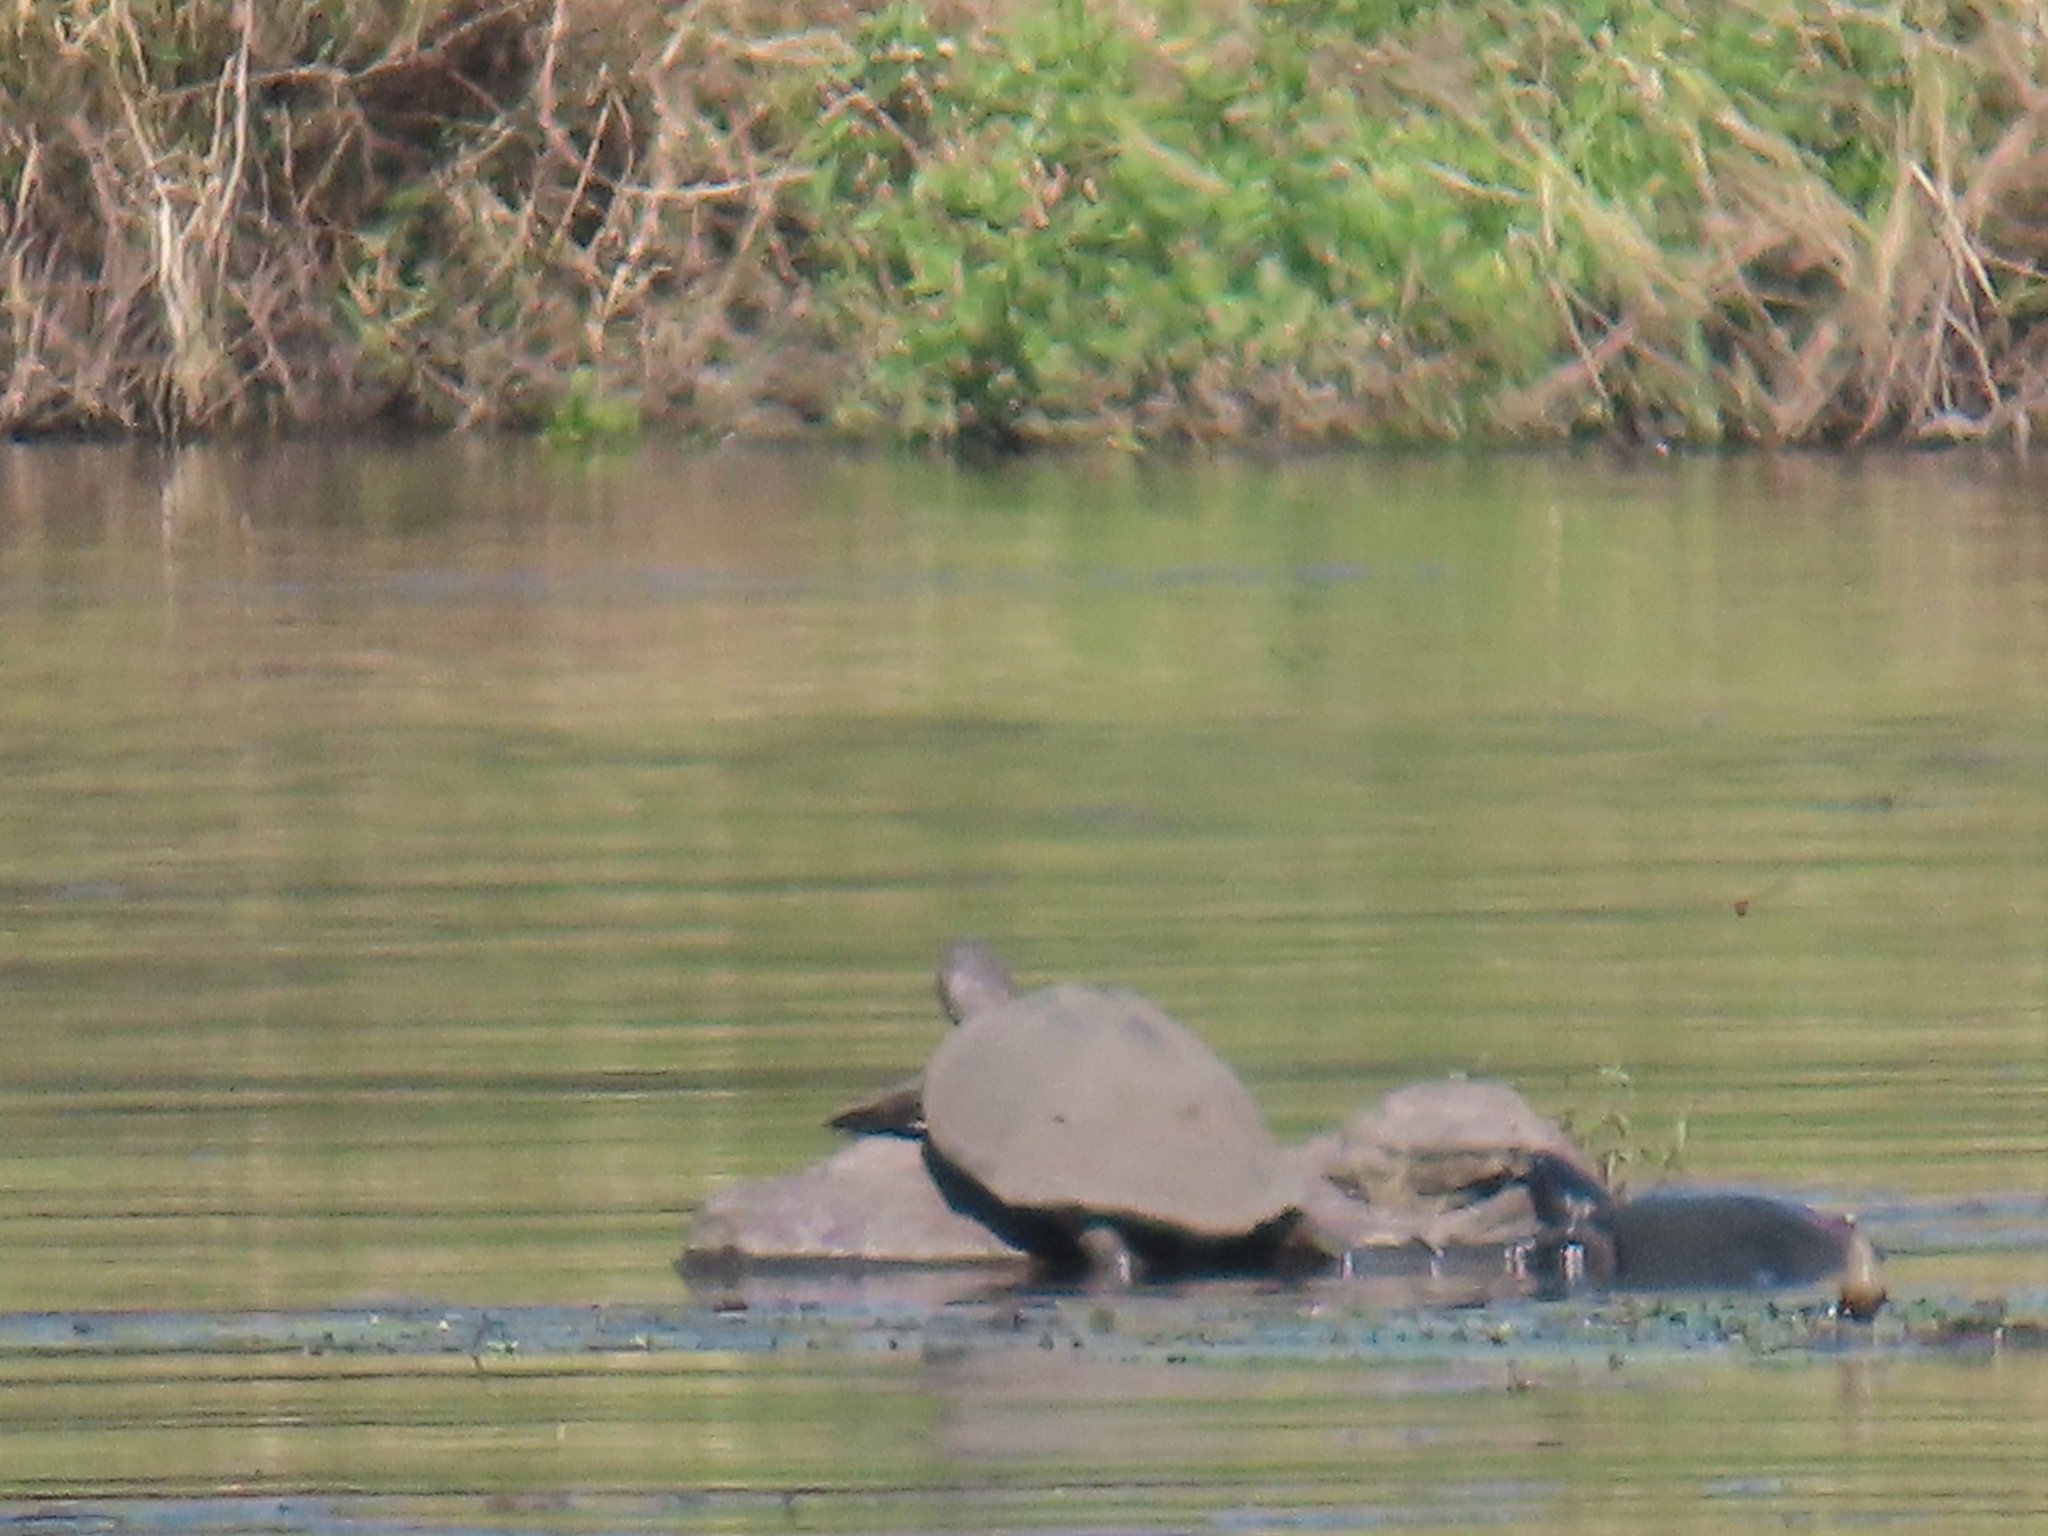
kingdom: Animalia
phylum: Chordata
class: Testudines
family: Pelomedusidae
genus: Pelusios
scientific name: Pelusios sinuatus
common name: Serrated hinged terrapin
